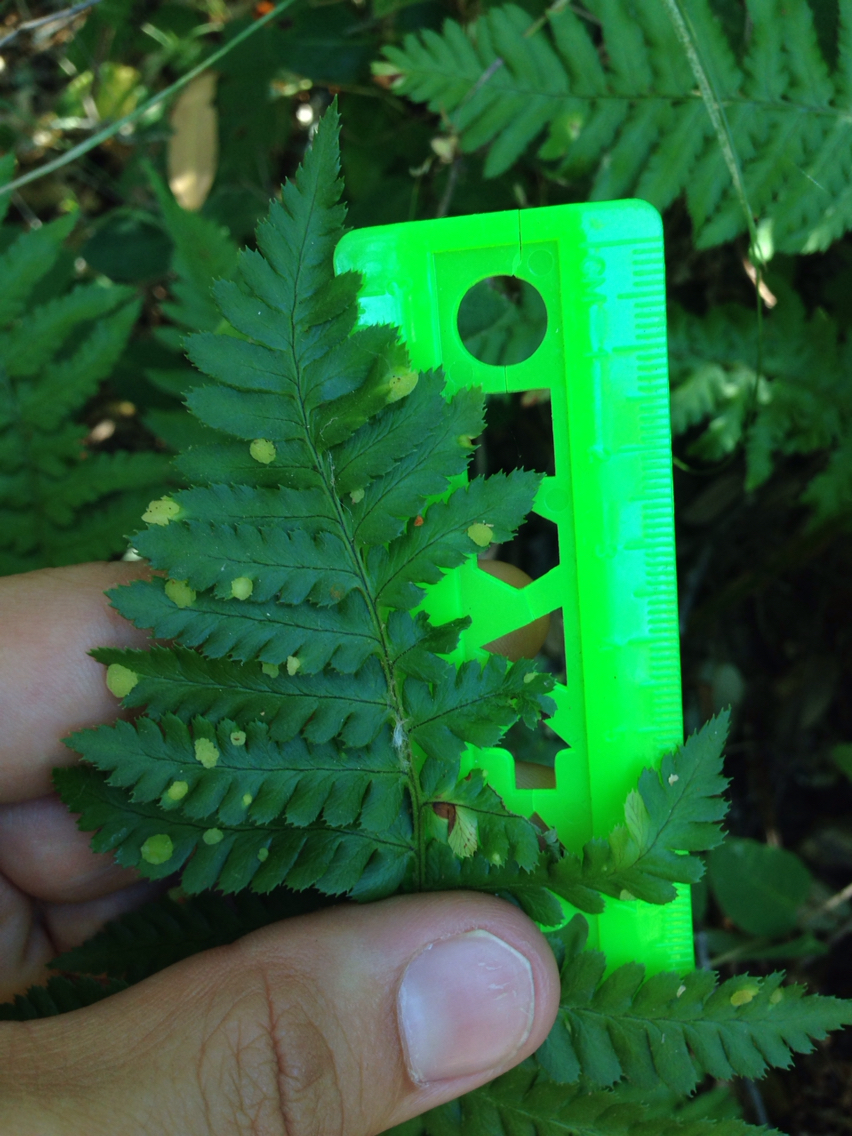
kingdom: Fungi
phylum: Ascomycota
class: Taphrinomycetes
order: Taphrinales
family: Taphrinaceae
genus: Taphrina
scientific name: Taphrina californica
